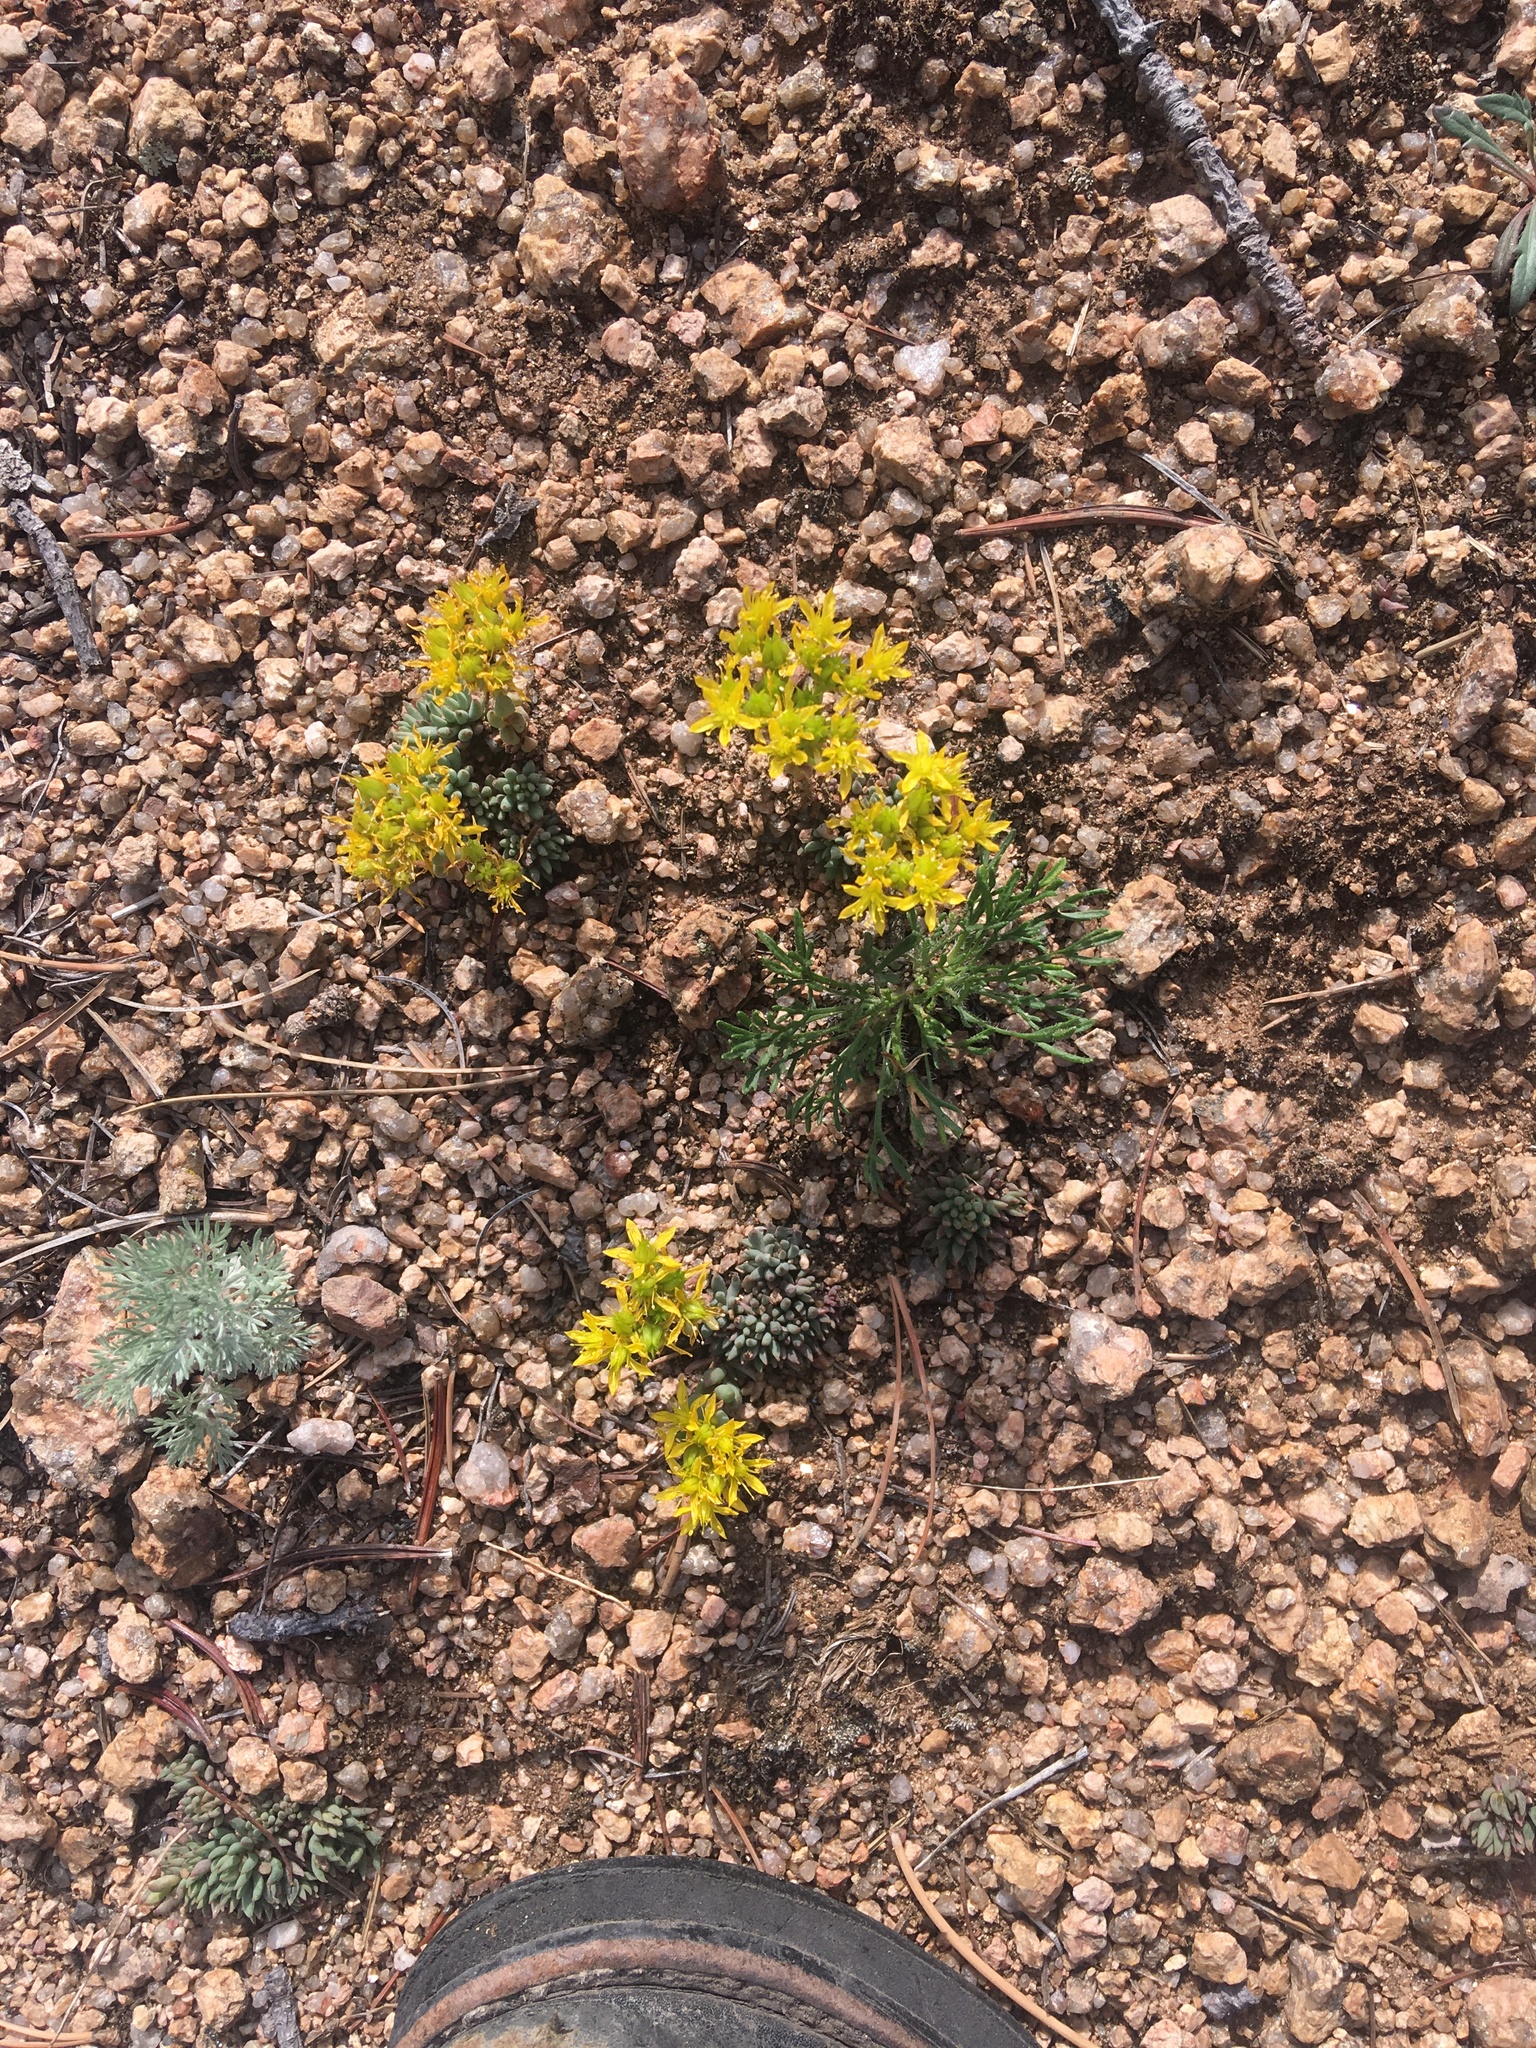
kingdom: Plantae
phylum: Tracheophyta
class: Magnoliopsida
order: Saxifragales
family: Crassulaceae
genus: Sedum
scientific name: Sedum lanceolatum
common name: Common stonecrop
